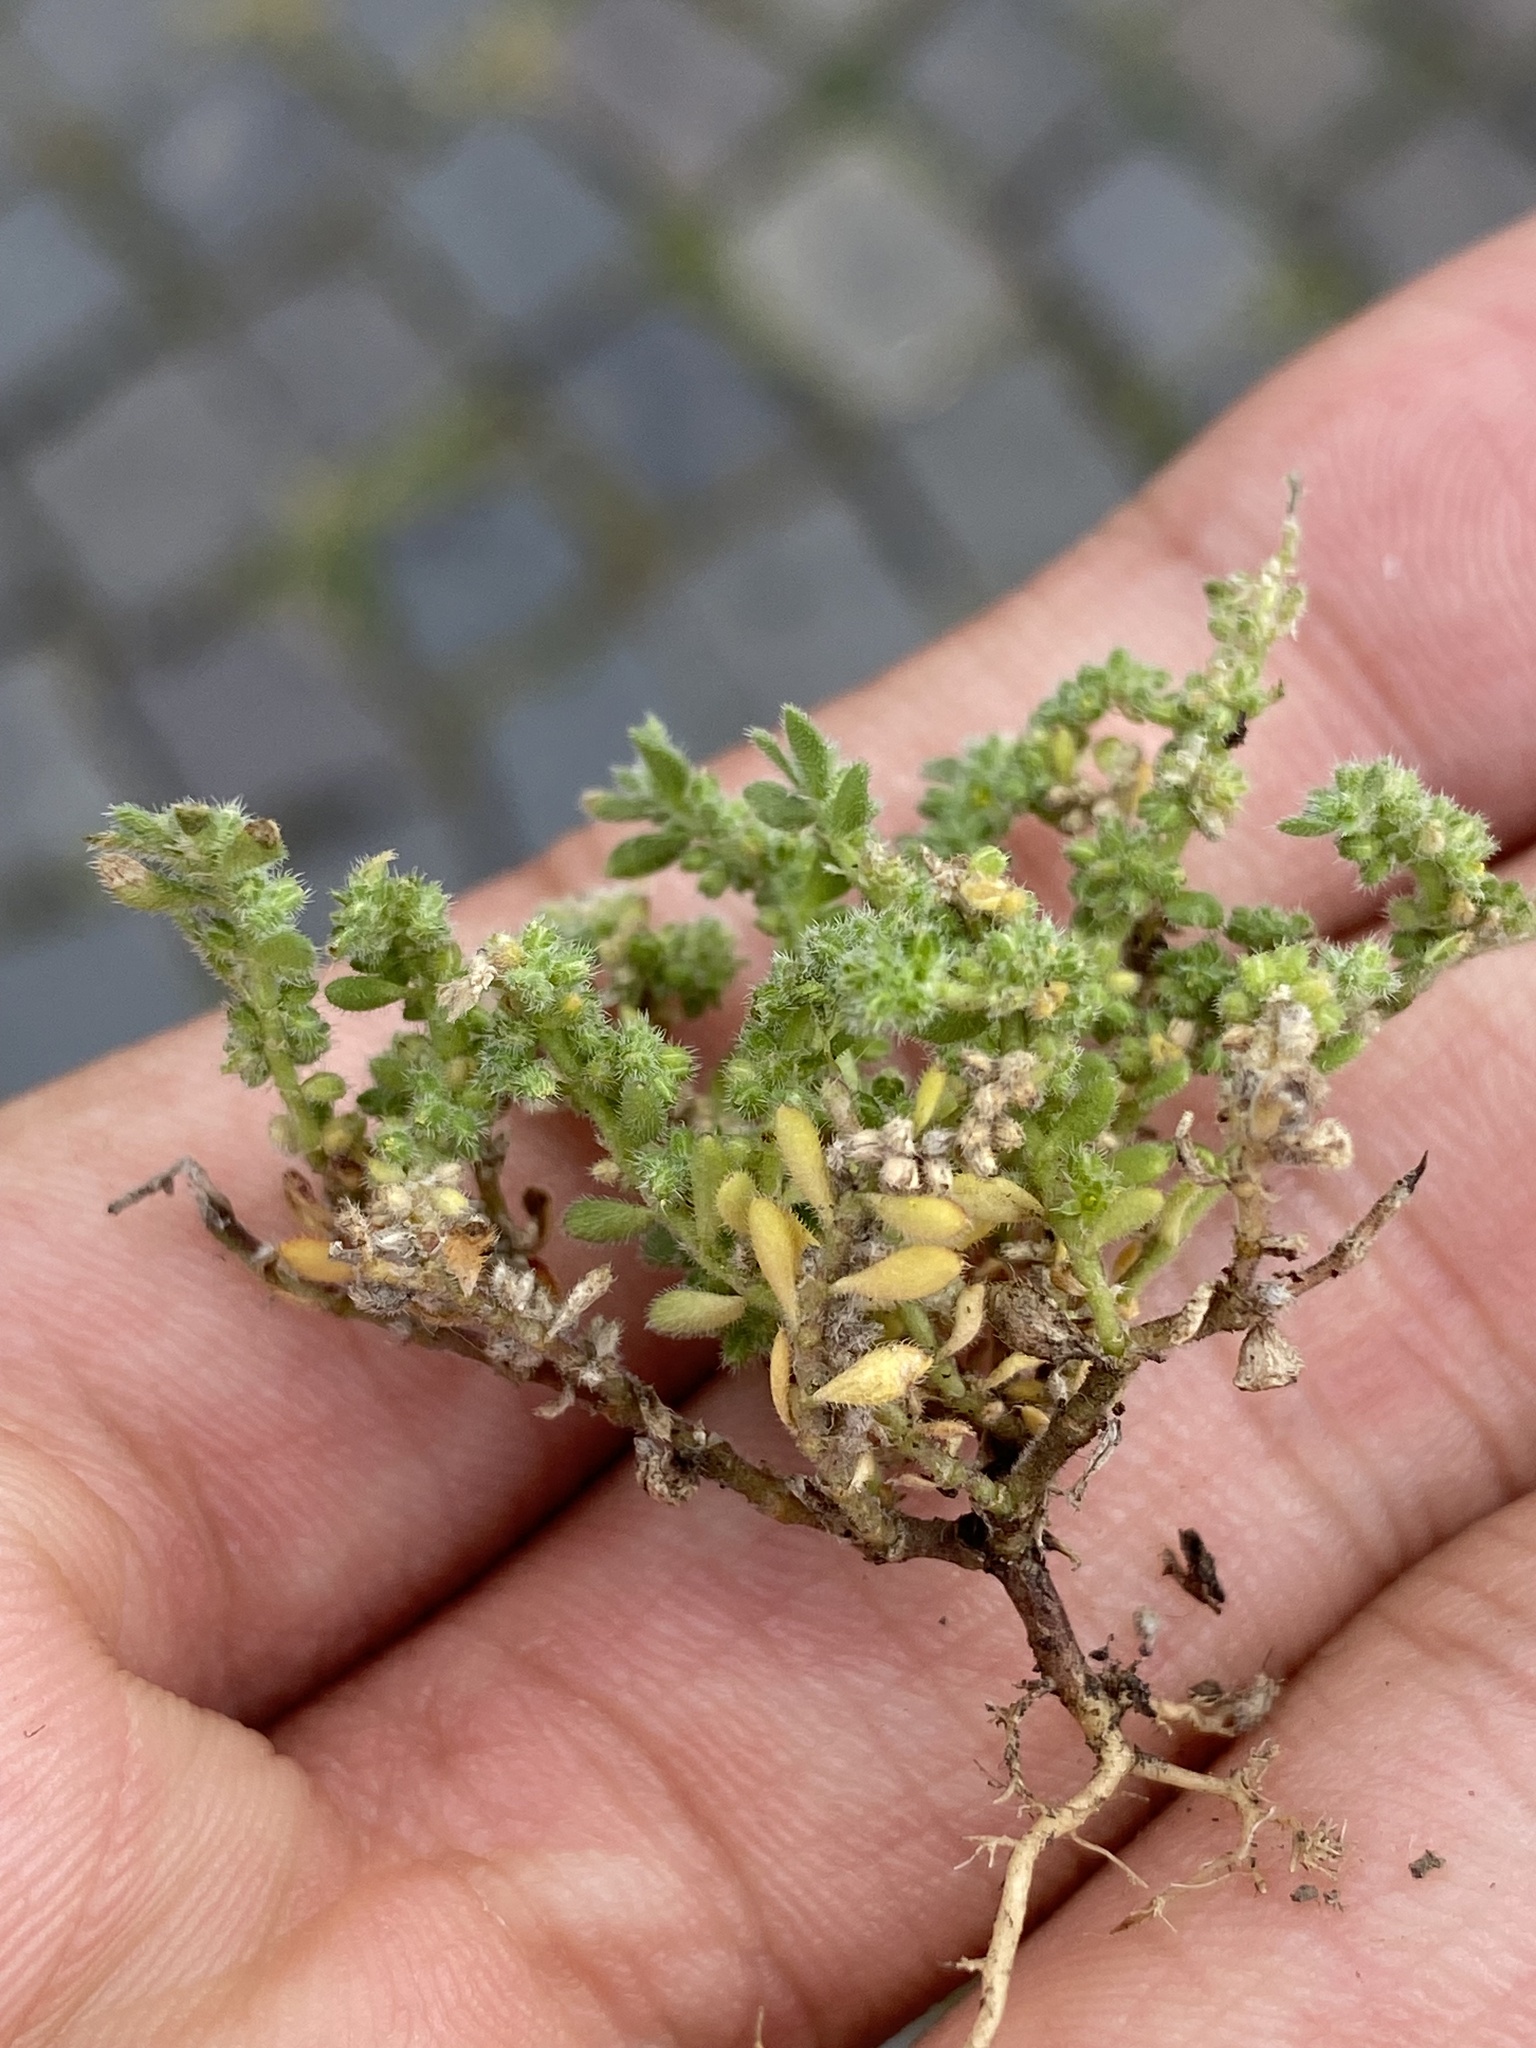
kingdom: Plantae
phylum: Tracheophyta
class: Magnoliopsida
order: Caryophyllales
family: Caryophyllaceae
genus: Herniaria
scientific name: Herniaria hirsuta
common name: Hairy rupturewort
